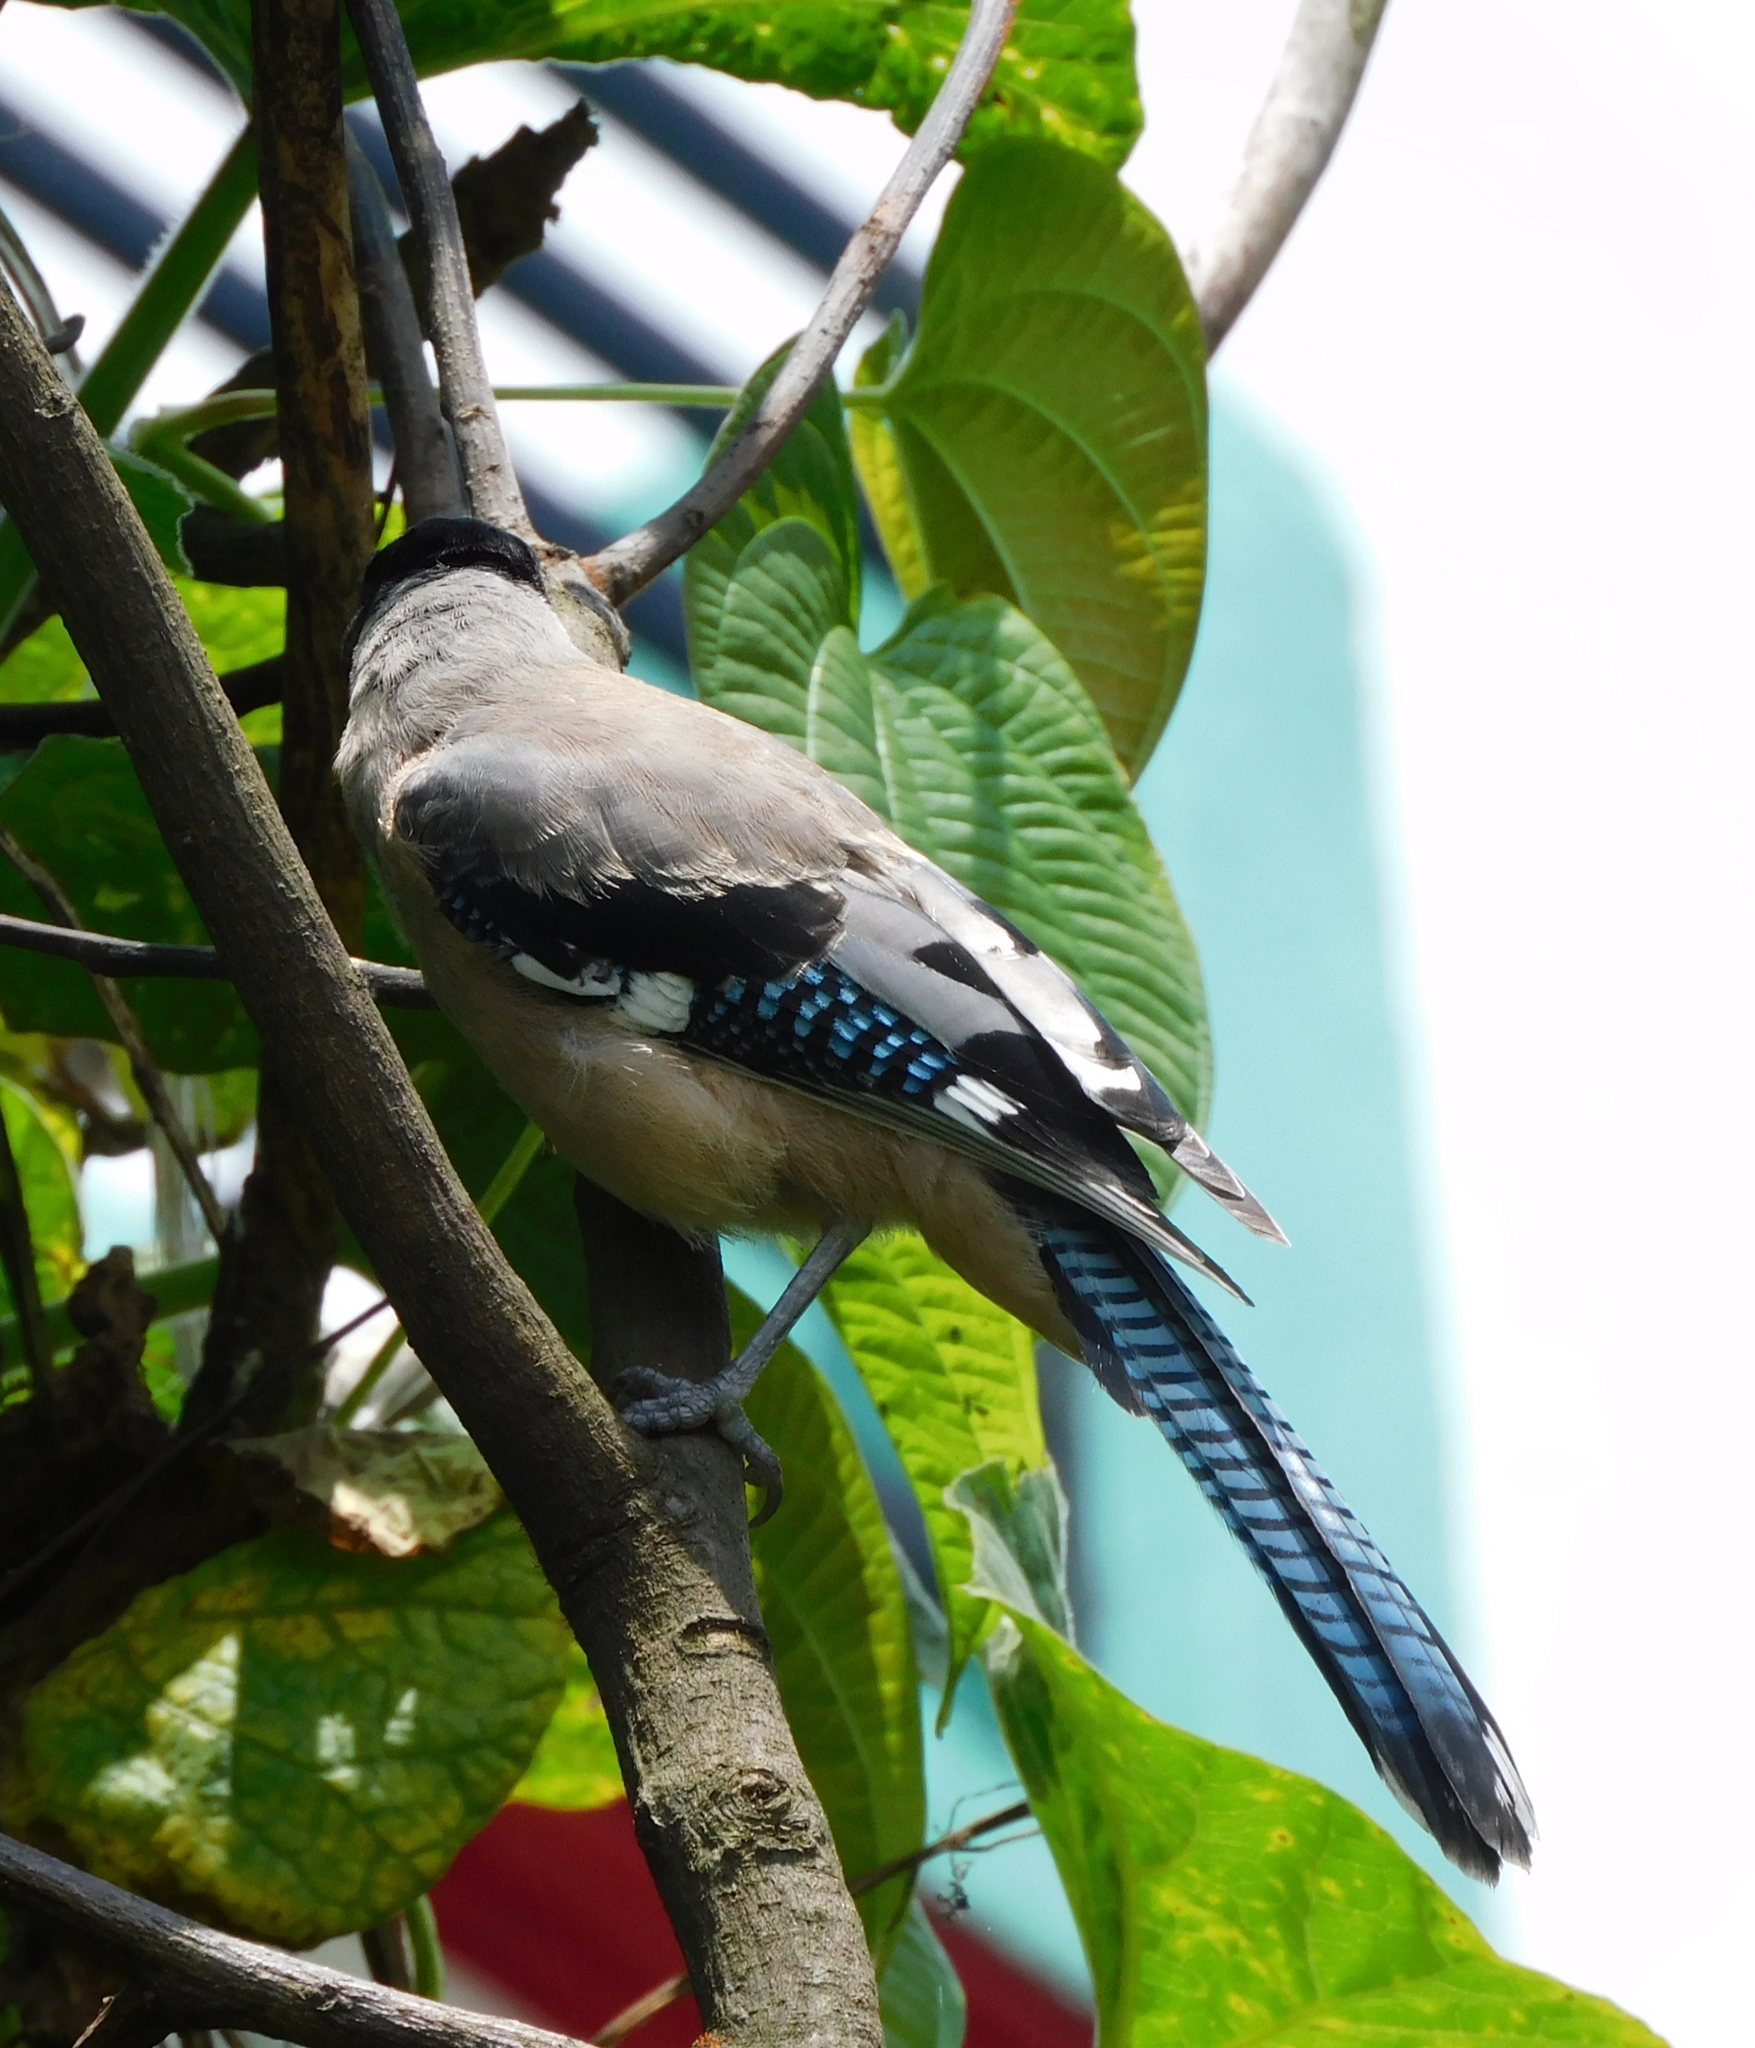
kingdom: Animalia
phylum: Chordata
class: Aves
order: Passeriformes
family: Corvidae
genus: Garrulus
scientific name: Garrulus lanceolatus
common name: Black-headed jay
